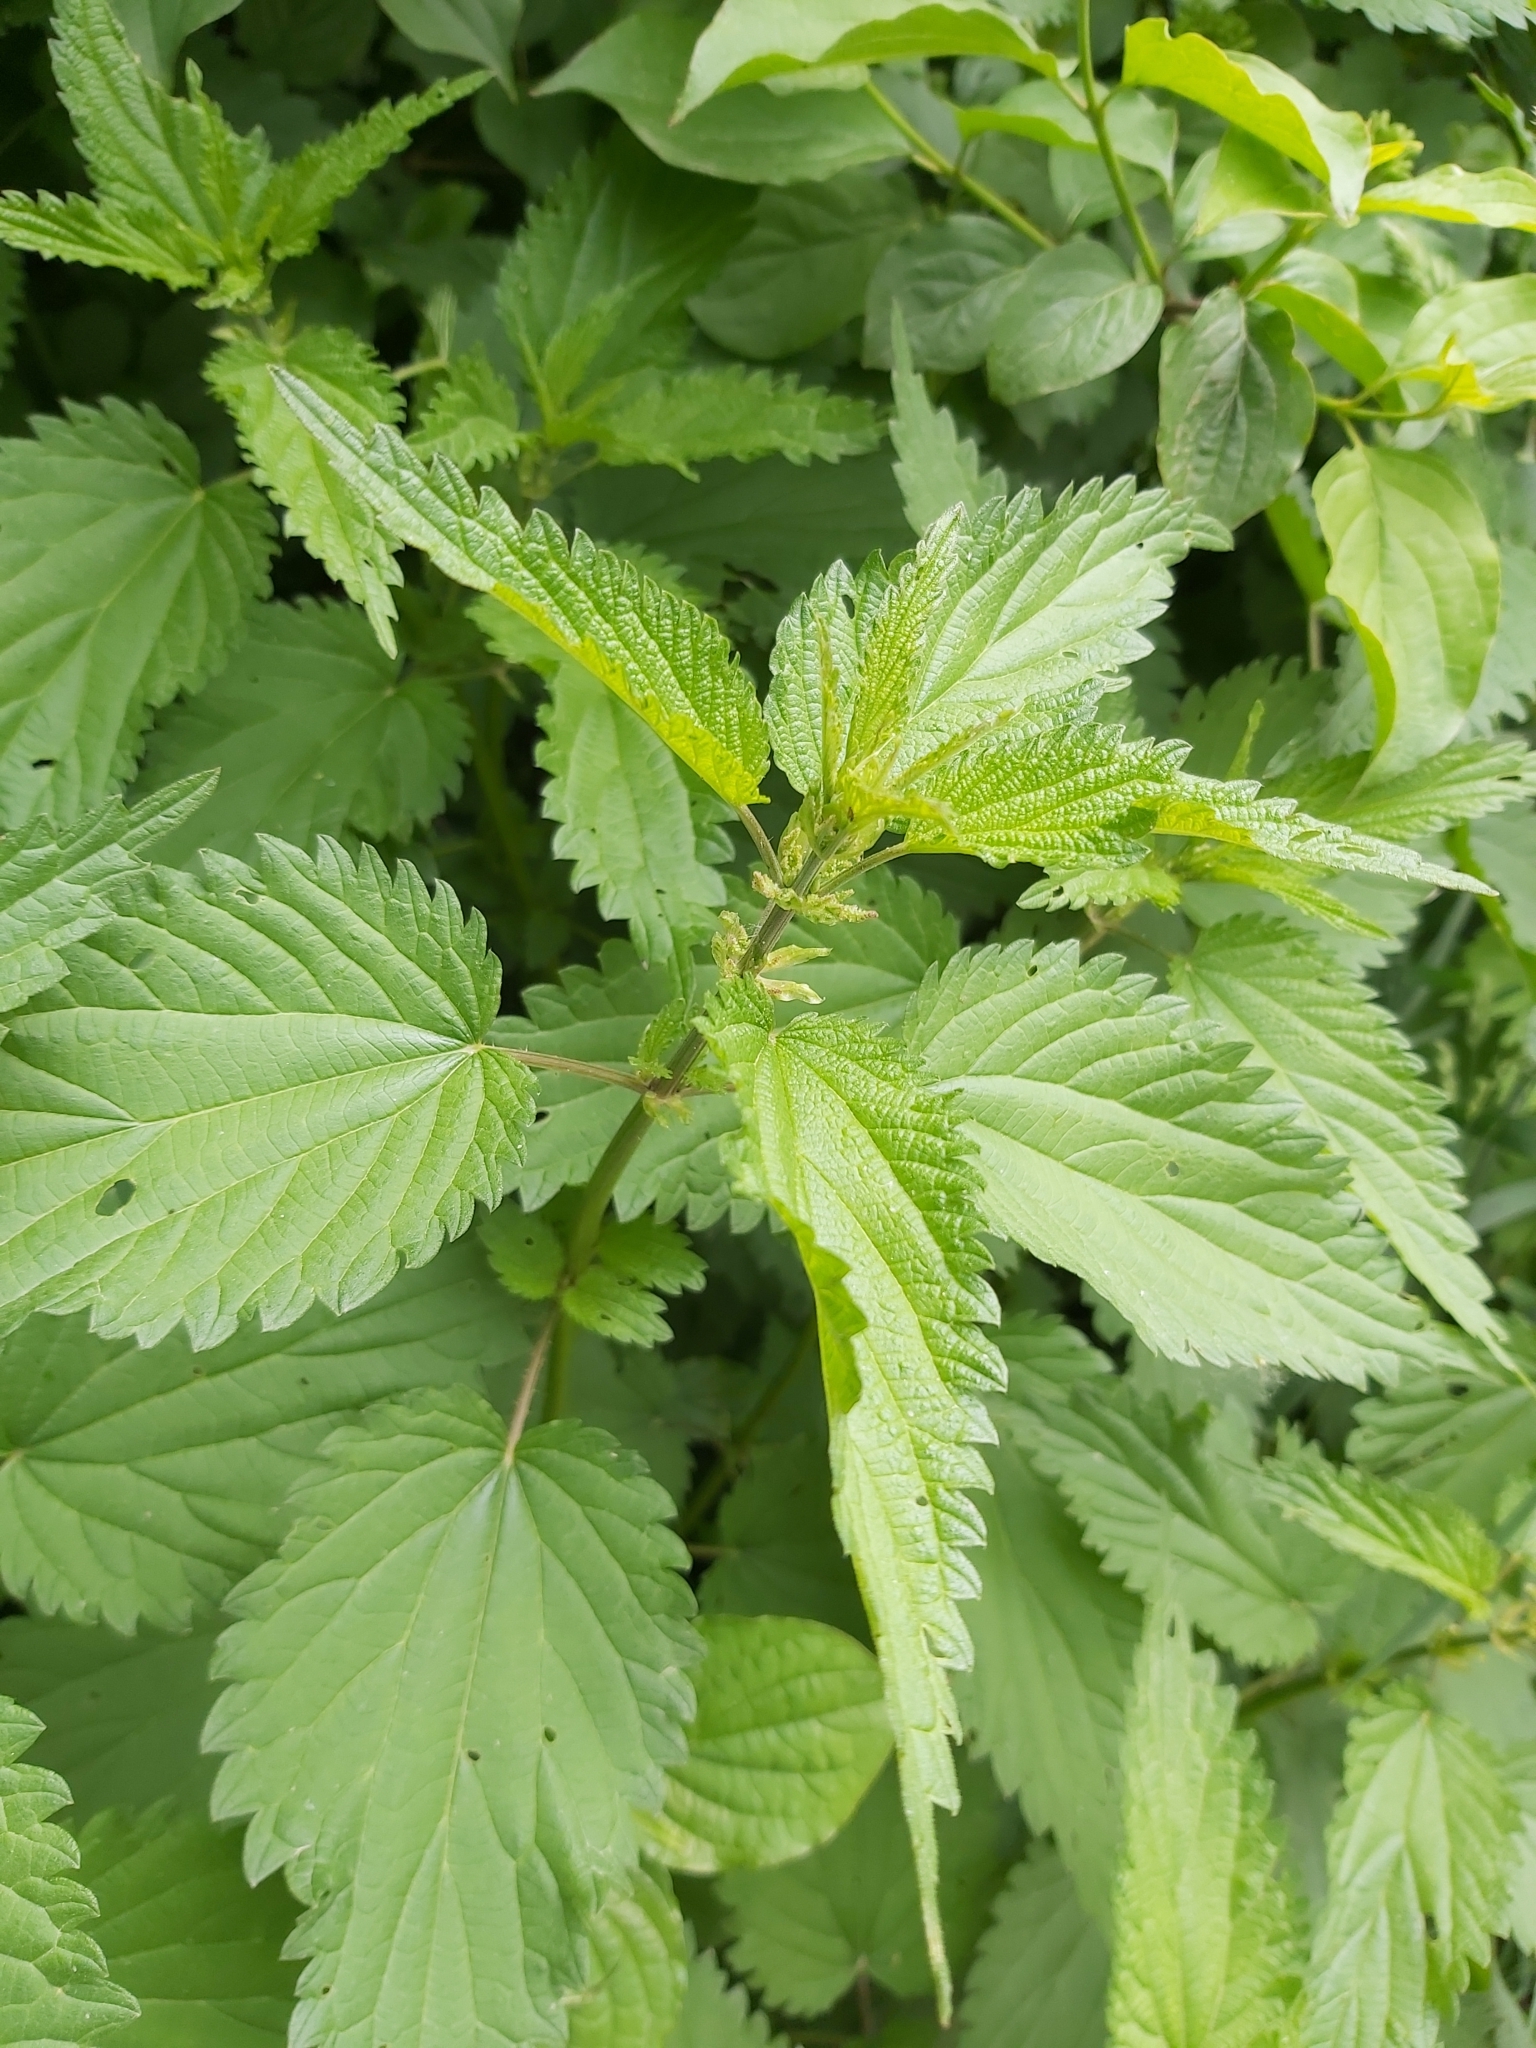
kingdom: Plantae
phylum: Tracheophyta
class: Magnoliopsida
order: Rosales
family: Urticaceae
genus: Urtica
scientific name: Urtica dioica
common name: Common nettle
